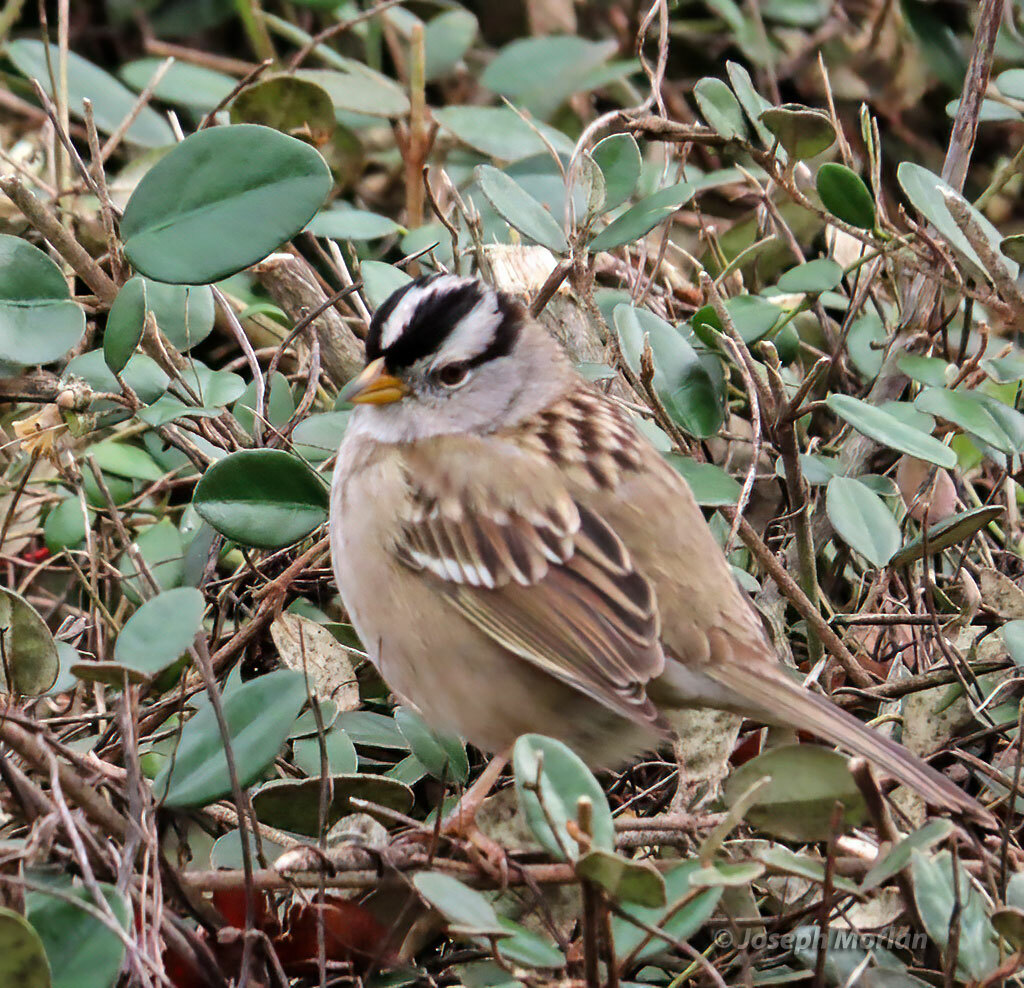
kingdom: Animalia
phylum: Chordata
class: Aves
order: Passeriformes
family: Passerellidae
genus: Zonotrichia
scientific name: Zonotrichia leucophrys
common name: White-crowned sparrow
